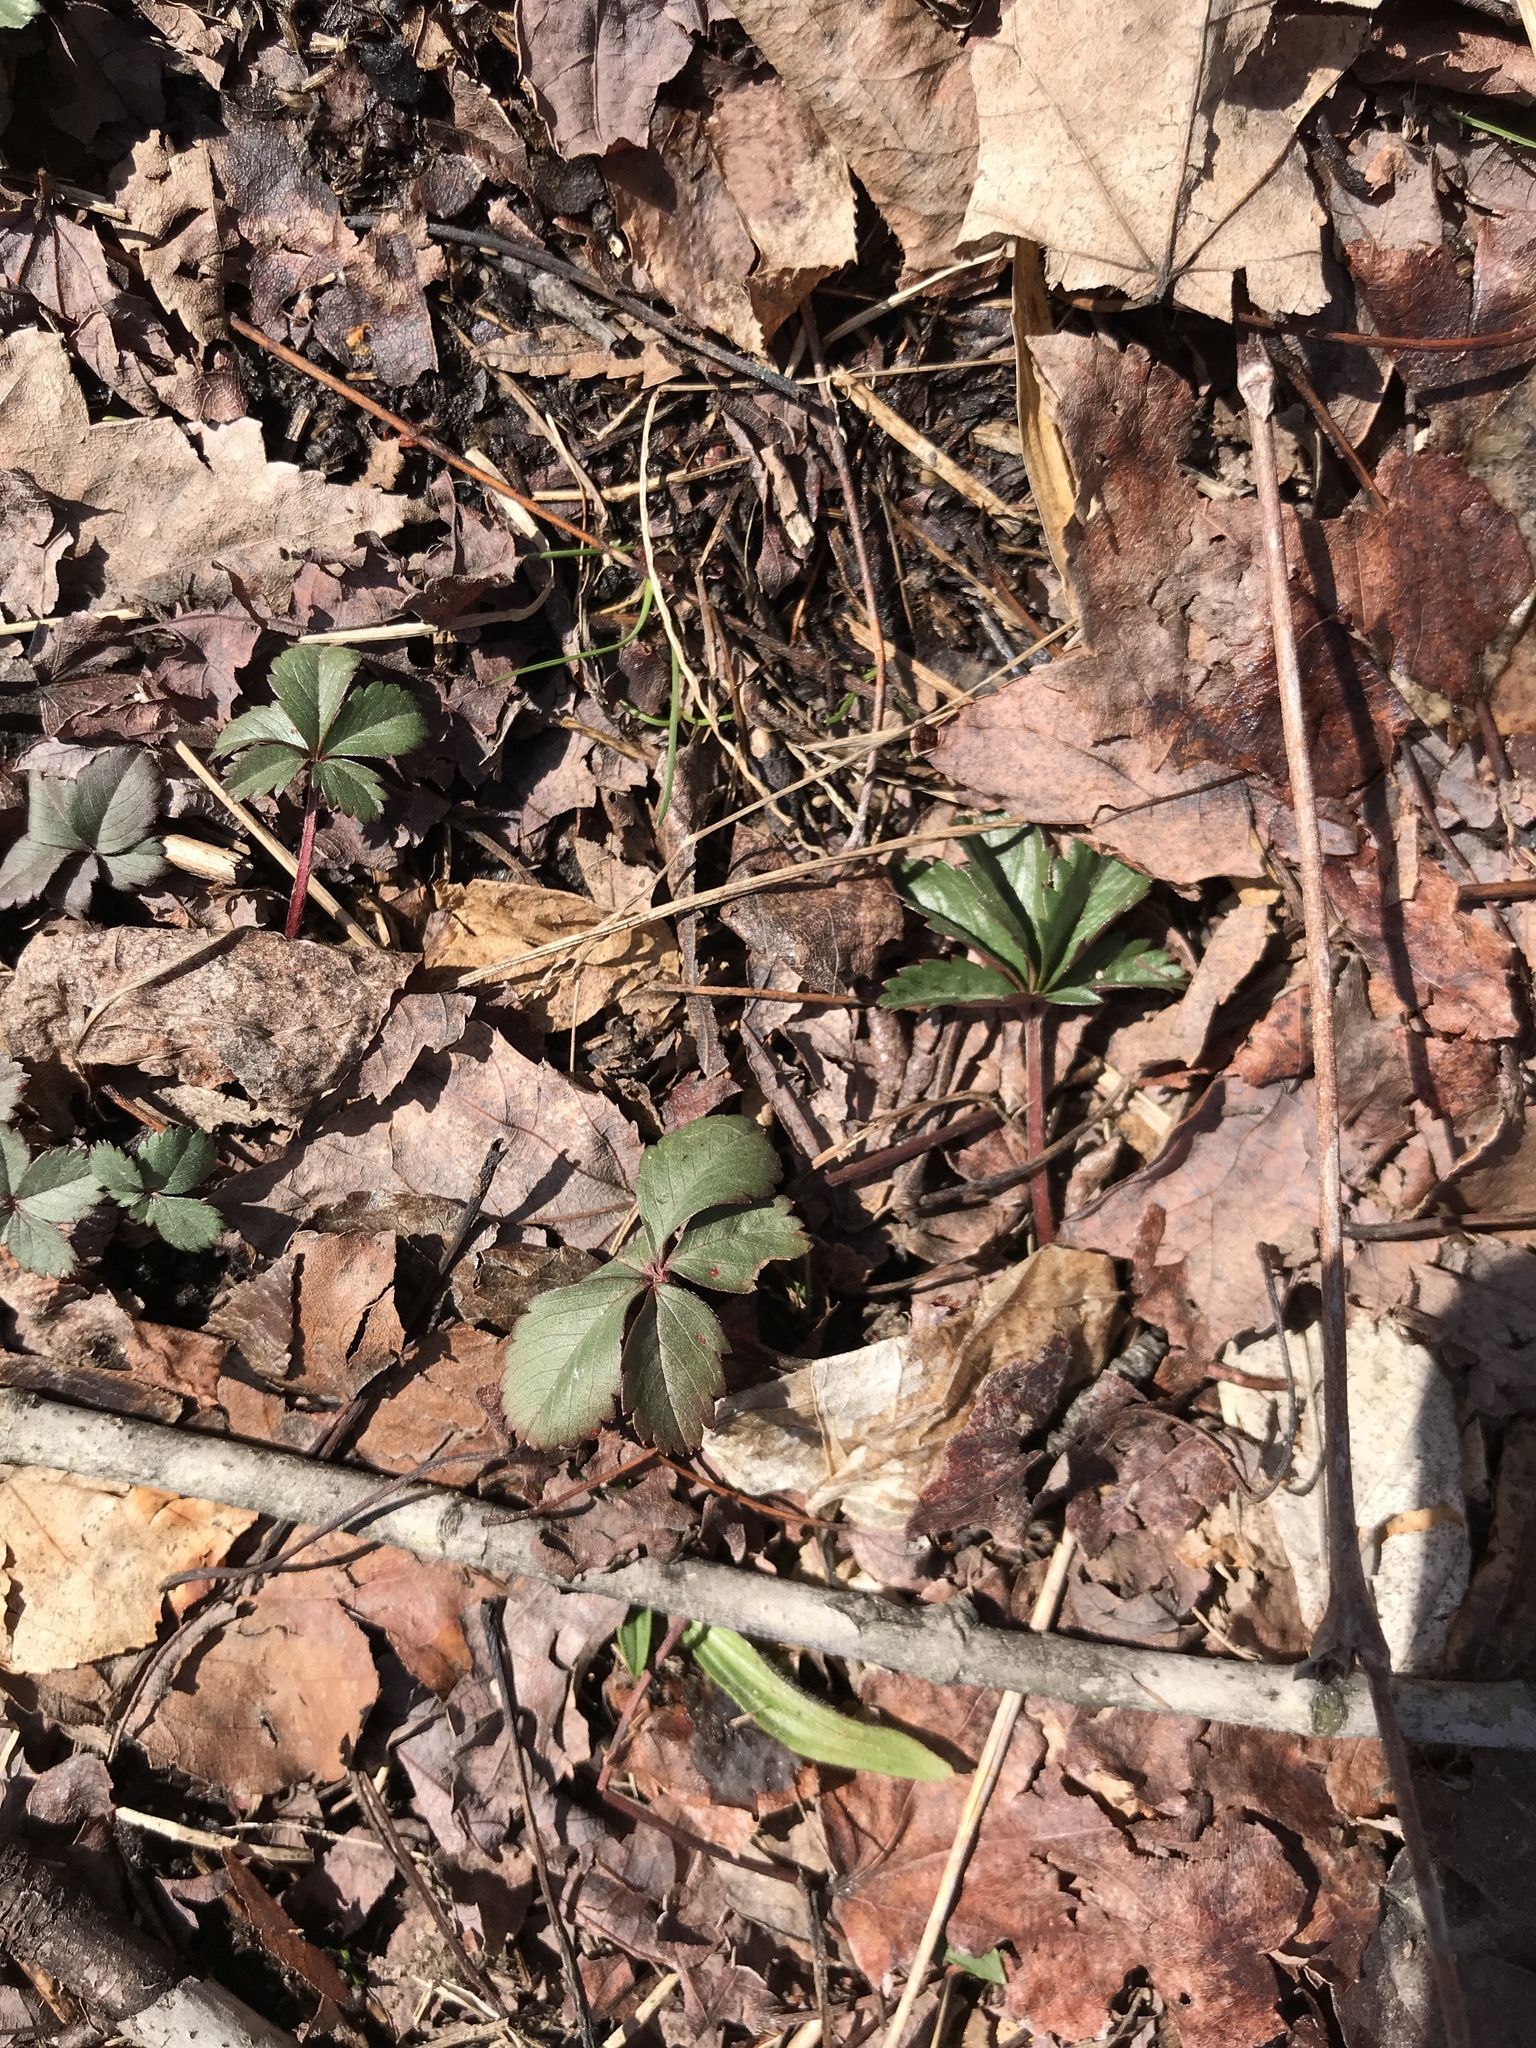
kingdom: Plantae
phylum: Tracheophyta
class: Magnoliopsida
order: Rosales
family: Rosaceae
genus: Potentilla
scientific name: Potentilla canadensis
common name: Canada cinquefoil
